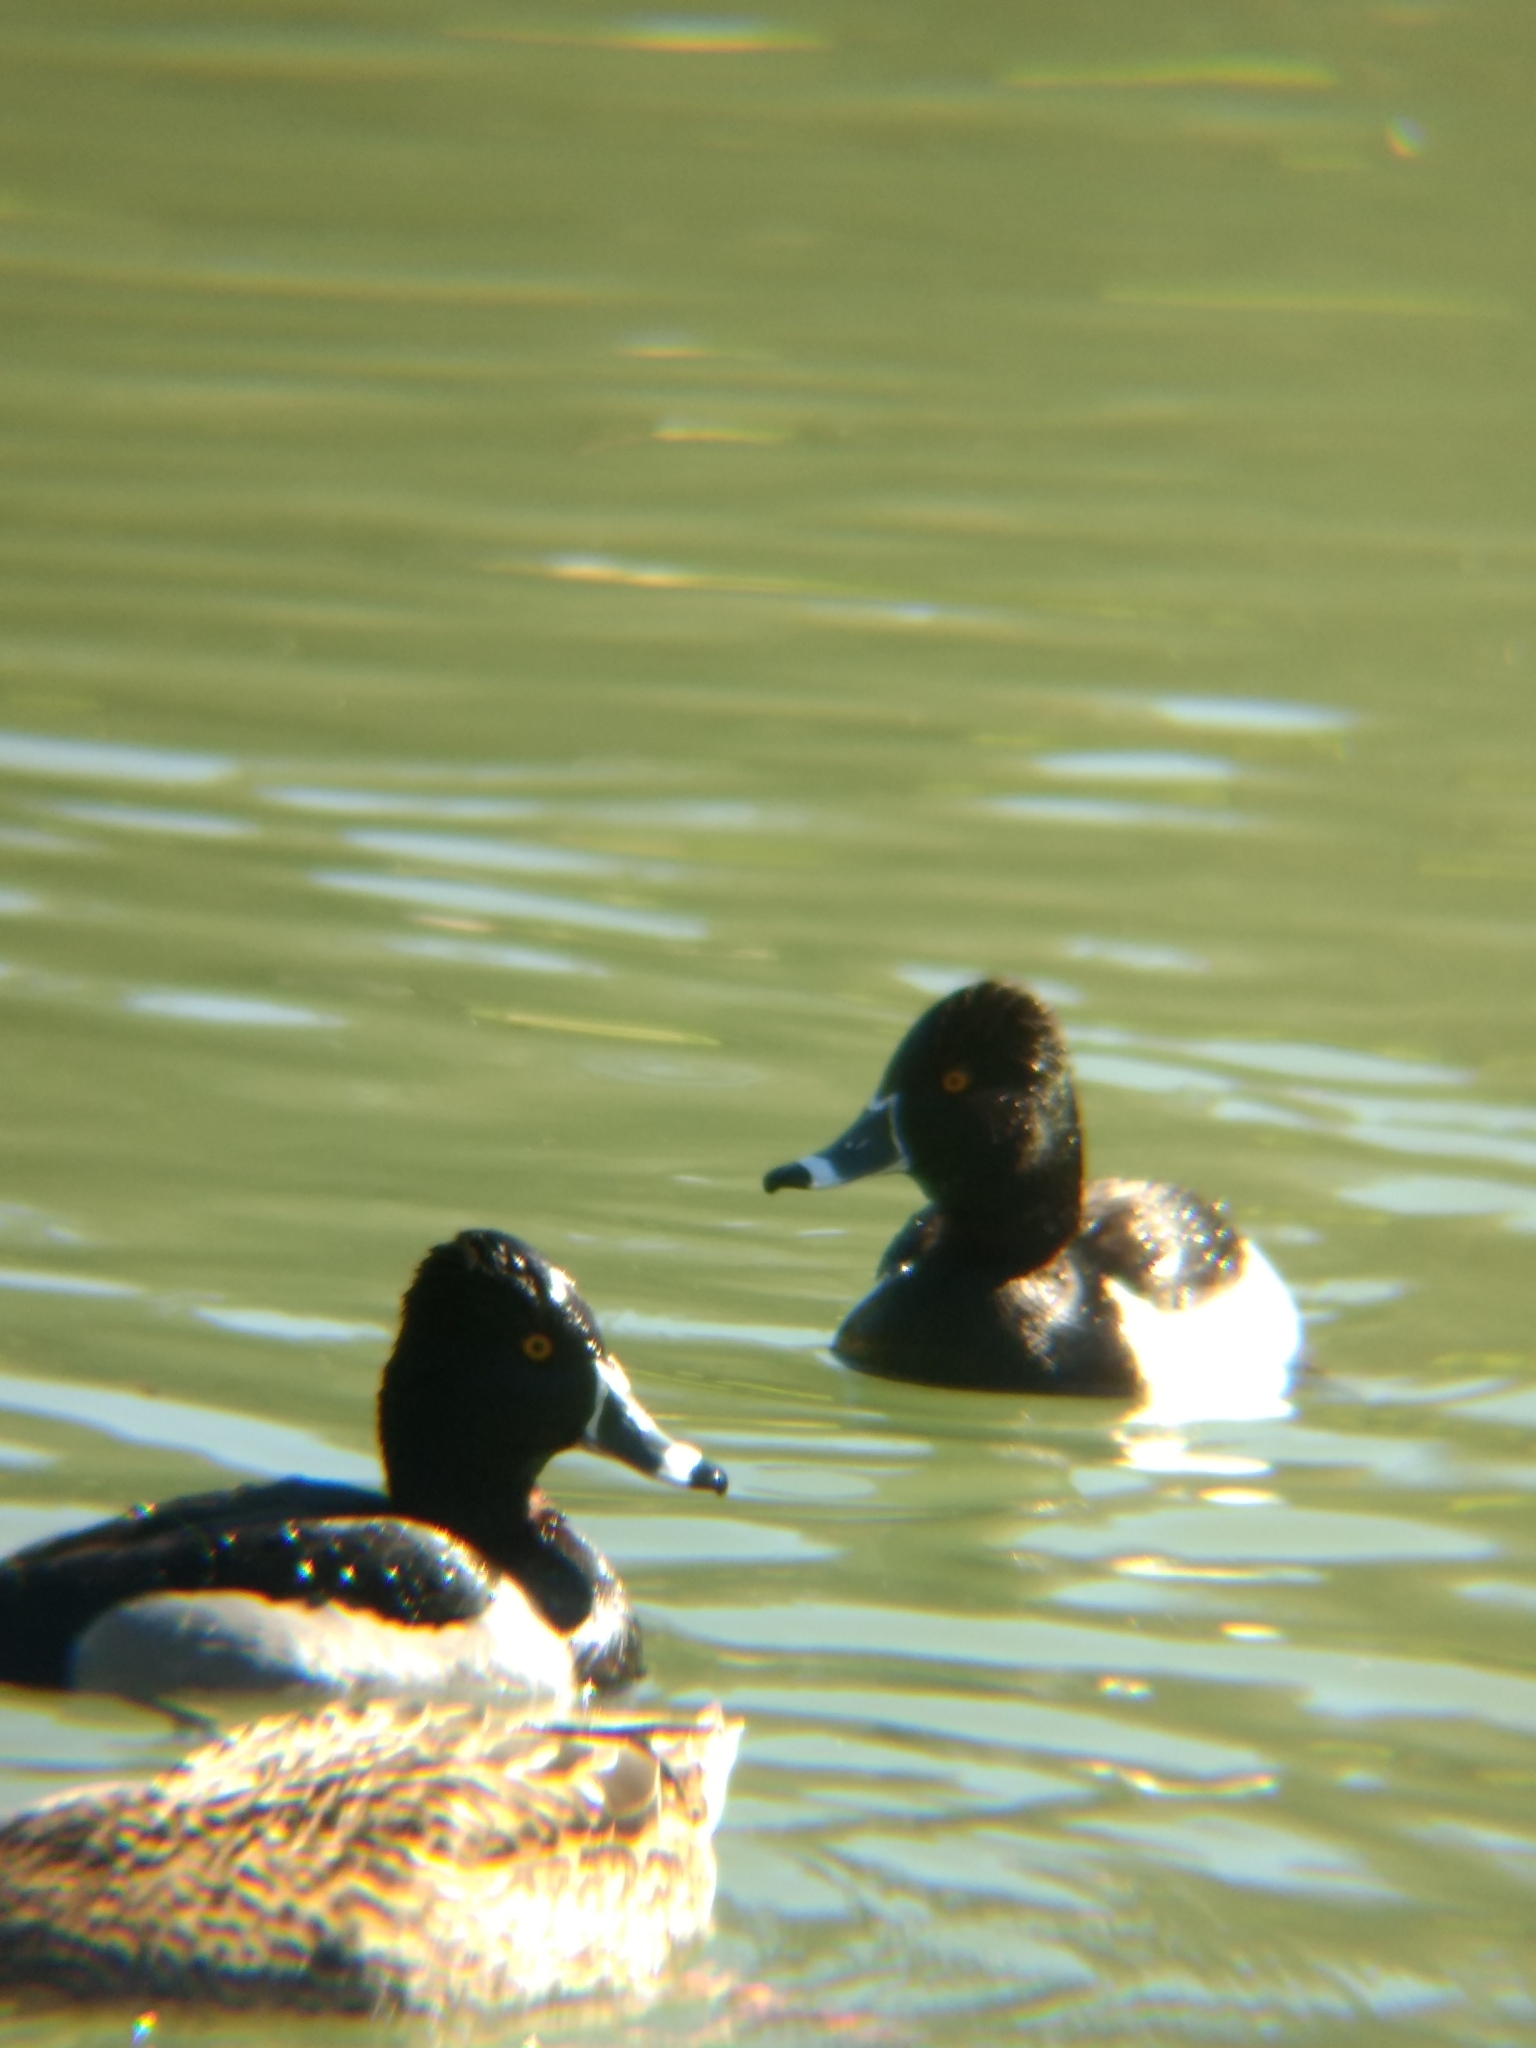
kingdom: Animalia
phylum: Chordata
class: Aves
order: Anseriformes
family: Anatidae
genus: Aythya
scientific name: Aythya collaris
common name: Ring-necked duck
